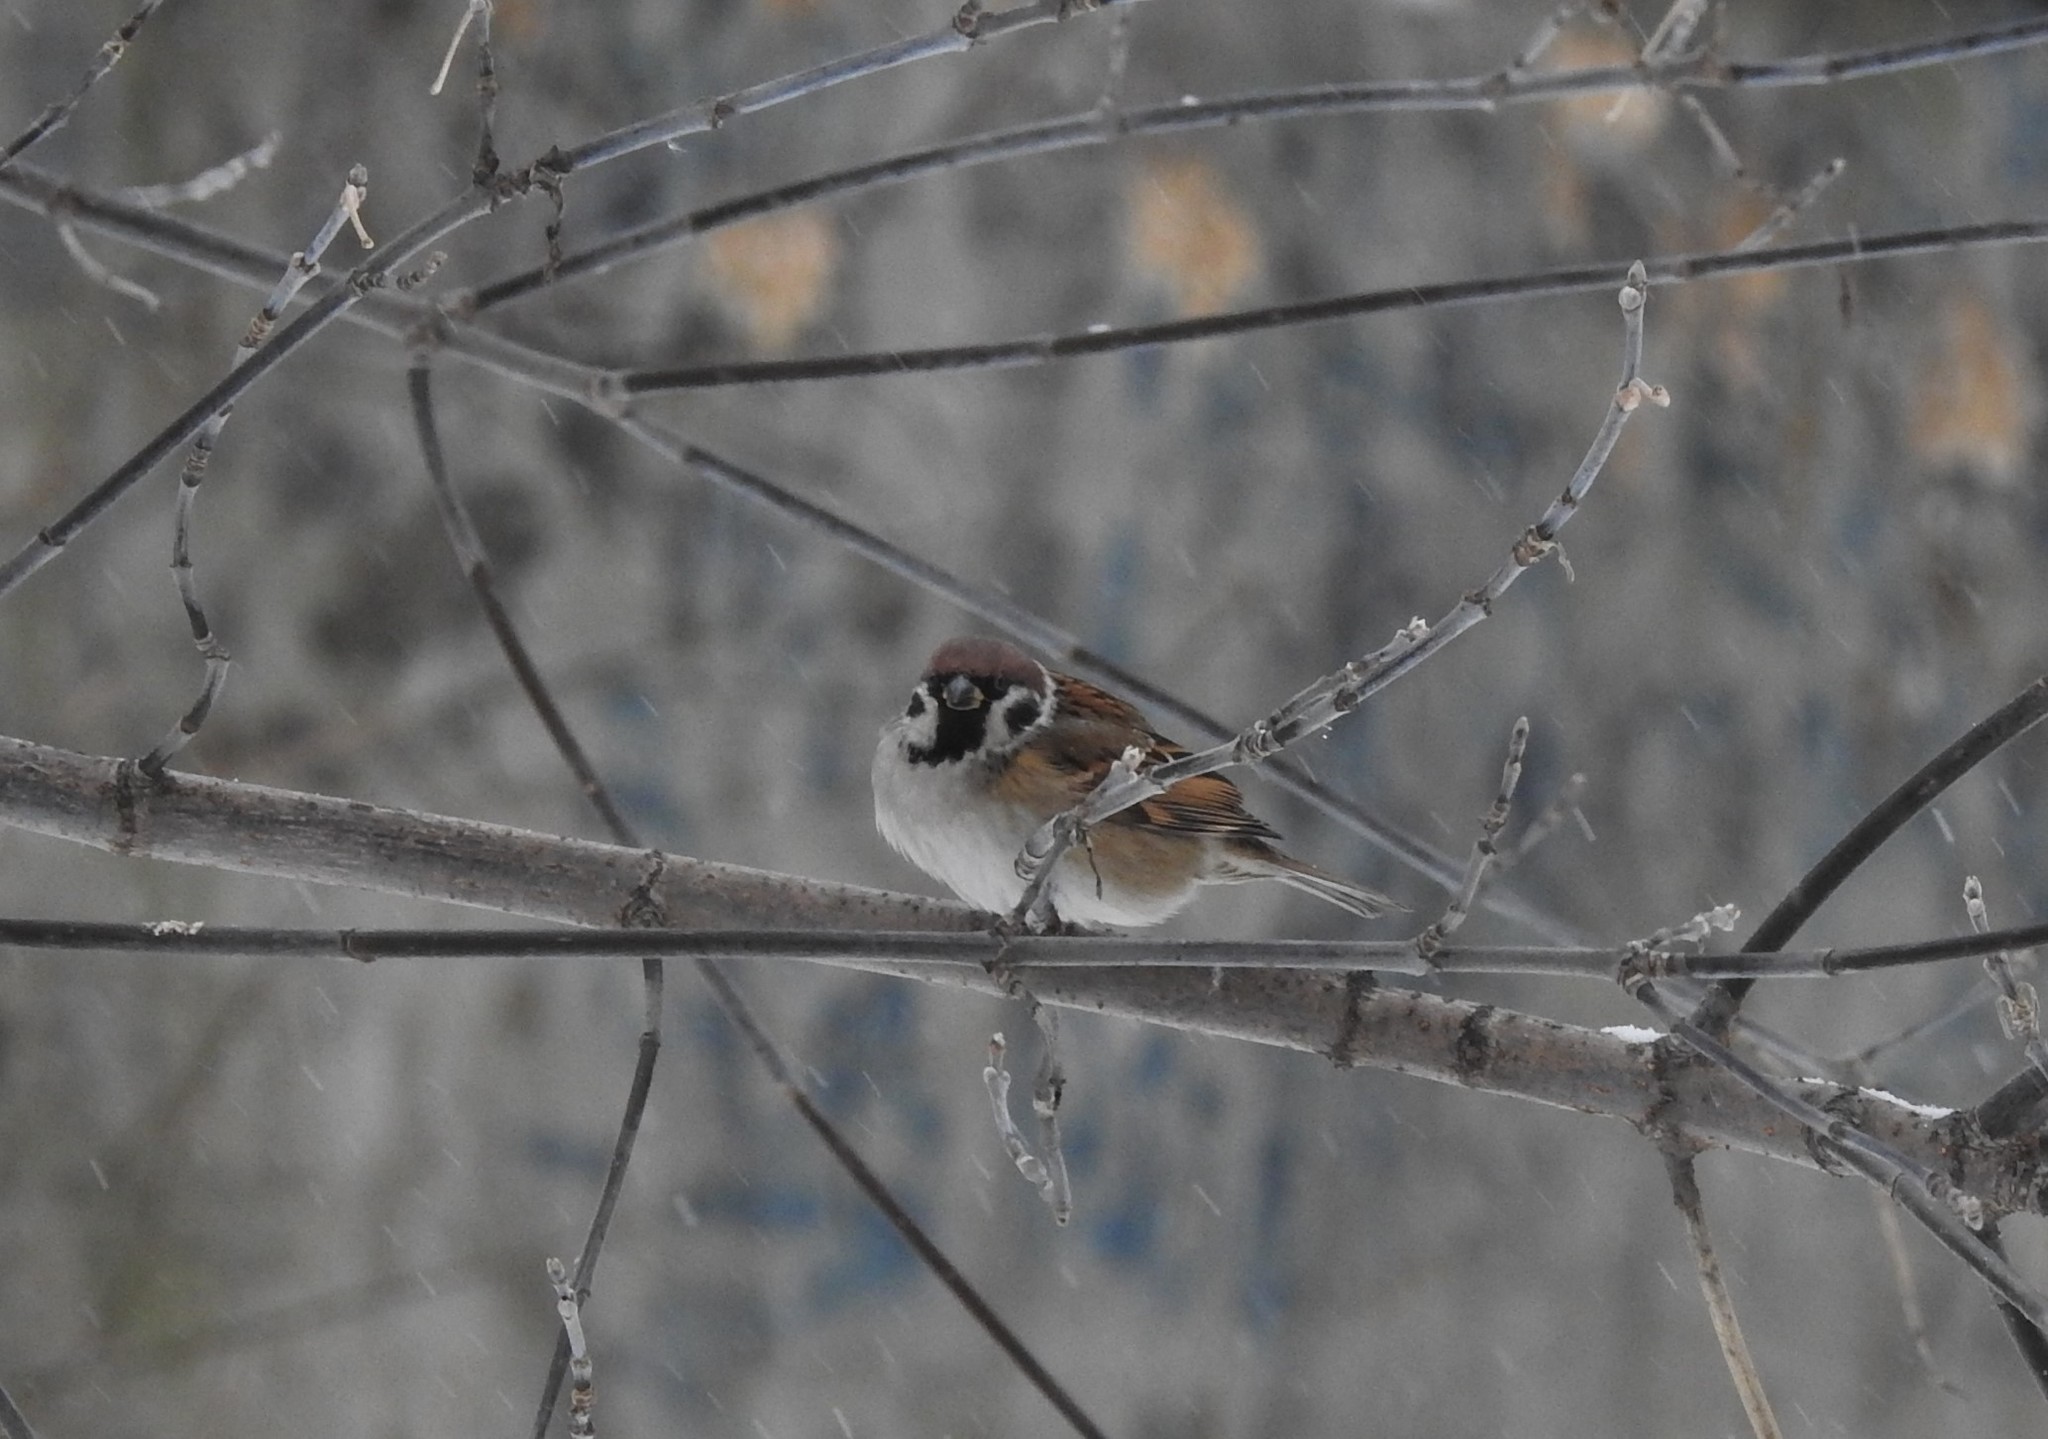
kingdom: Animalia
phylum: Chordata
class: Aves
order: Passeriformes
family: Passeridae
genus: Passer
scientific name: Passer montanus
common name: Eurasian tree sparrow
